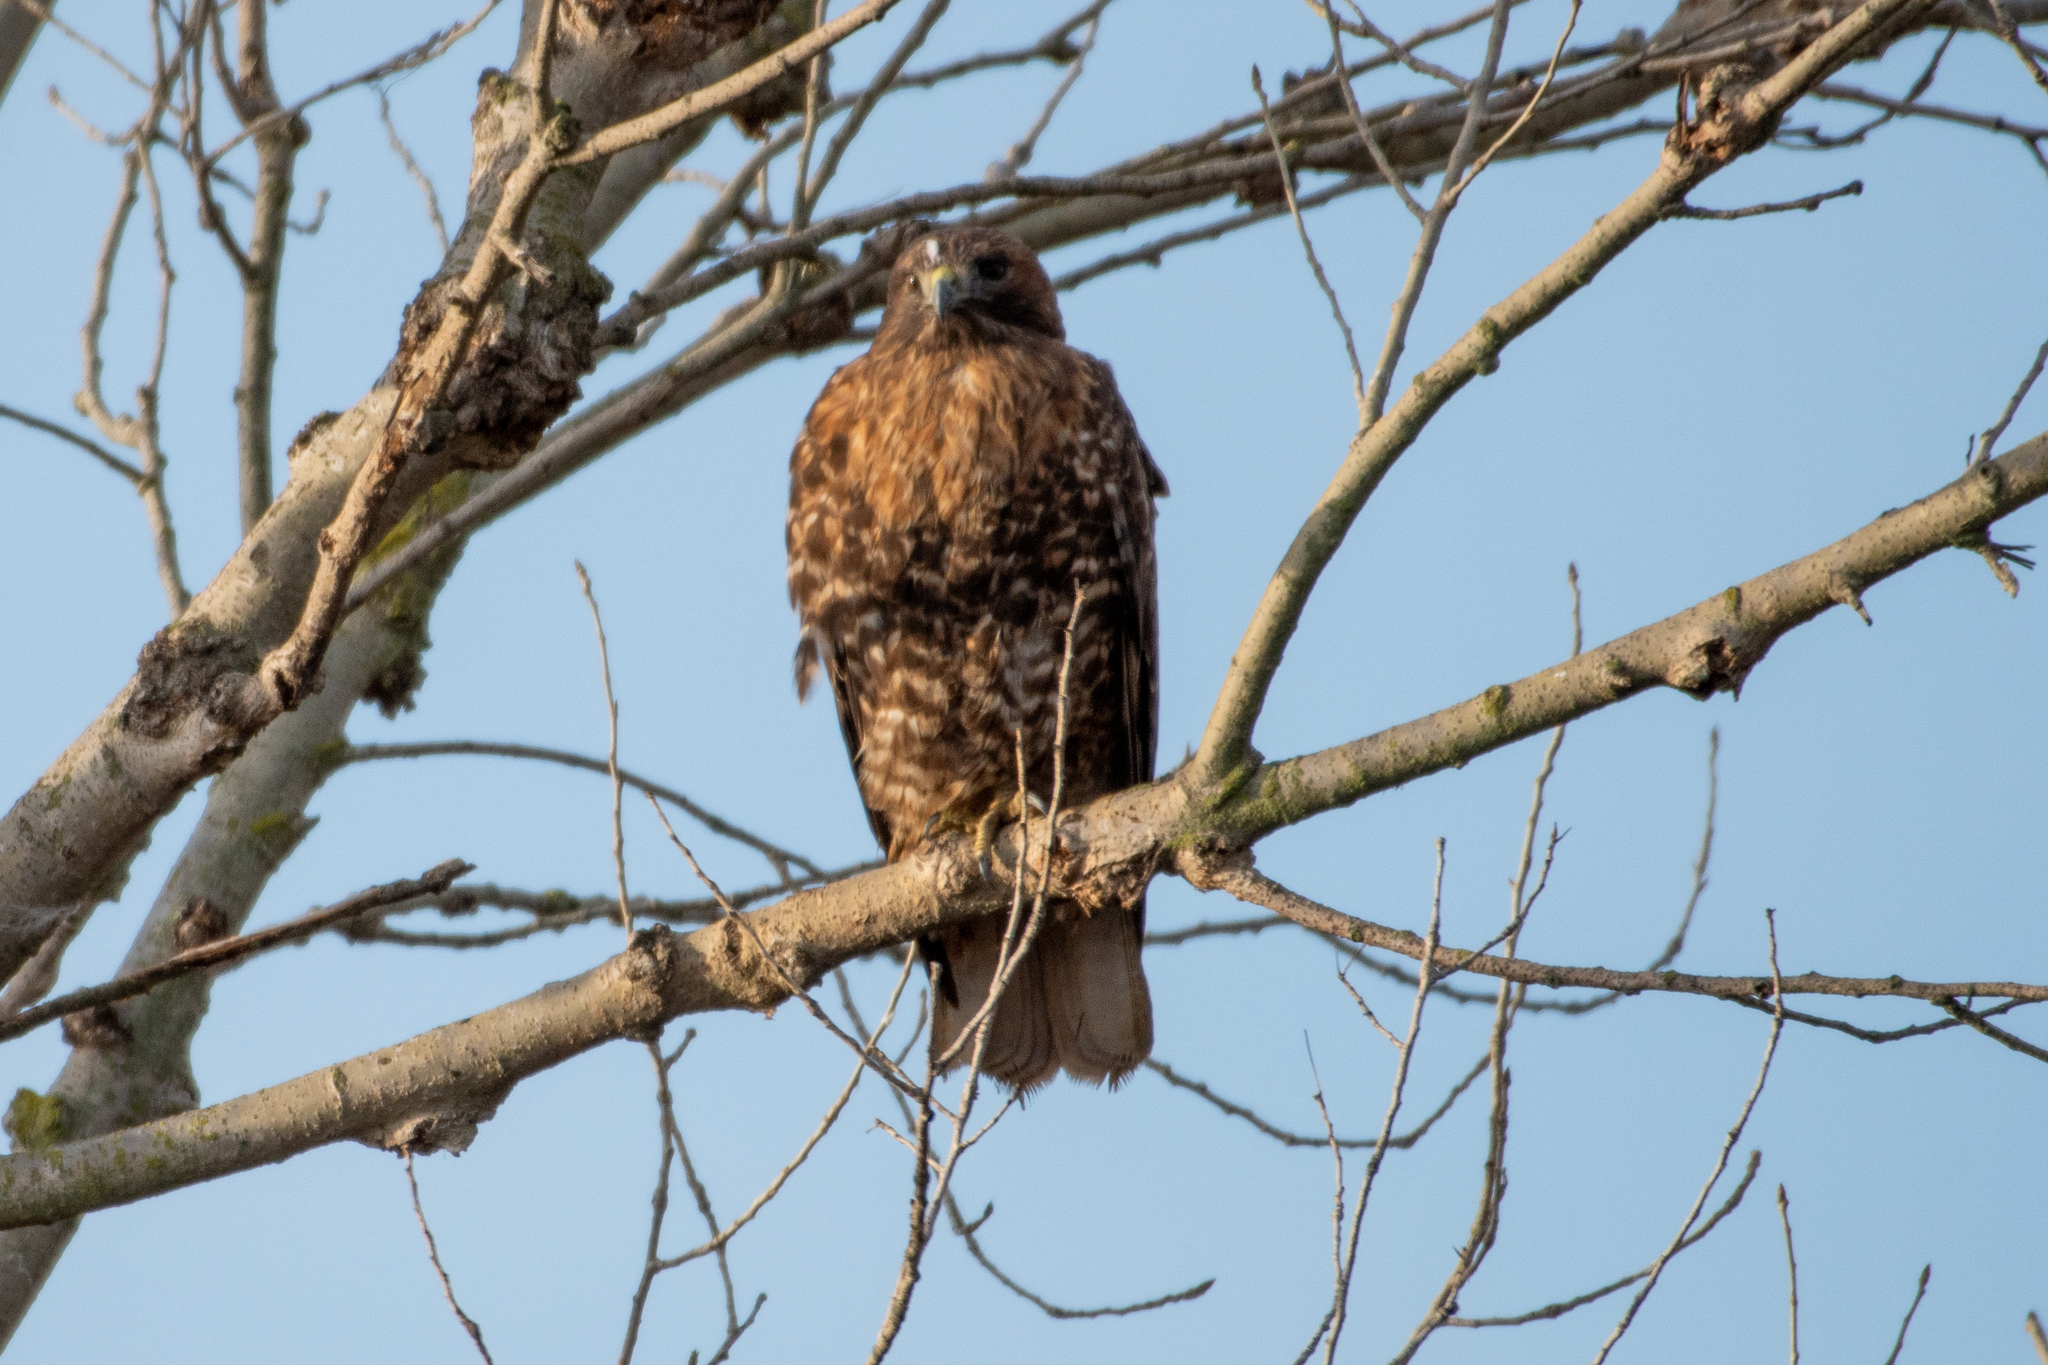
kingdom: Animalia
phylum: Chordata
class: Aves
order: Accipitriformes
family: Accipitridae
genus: Buteo
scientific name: Buteo jamaicensis
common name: Red-tailed hawk
